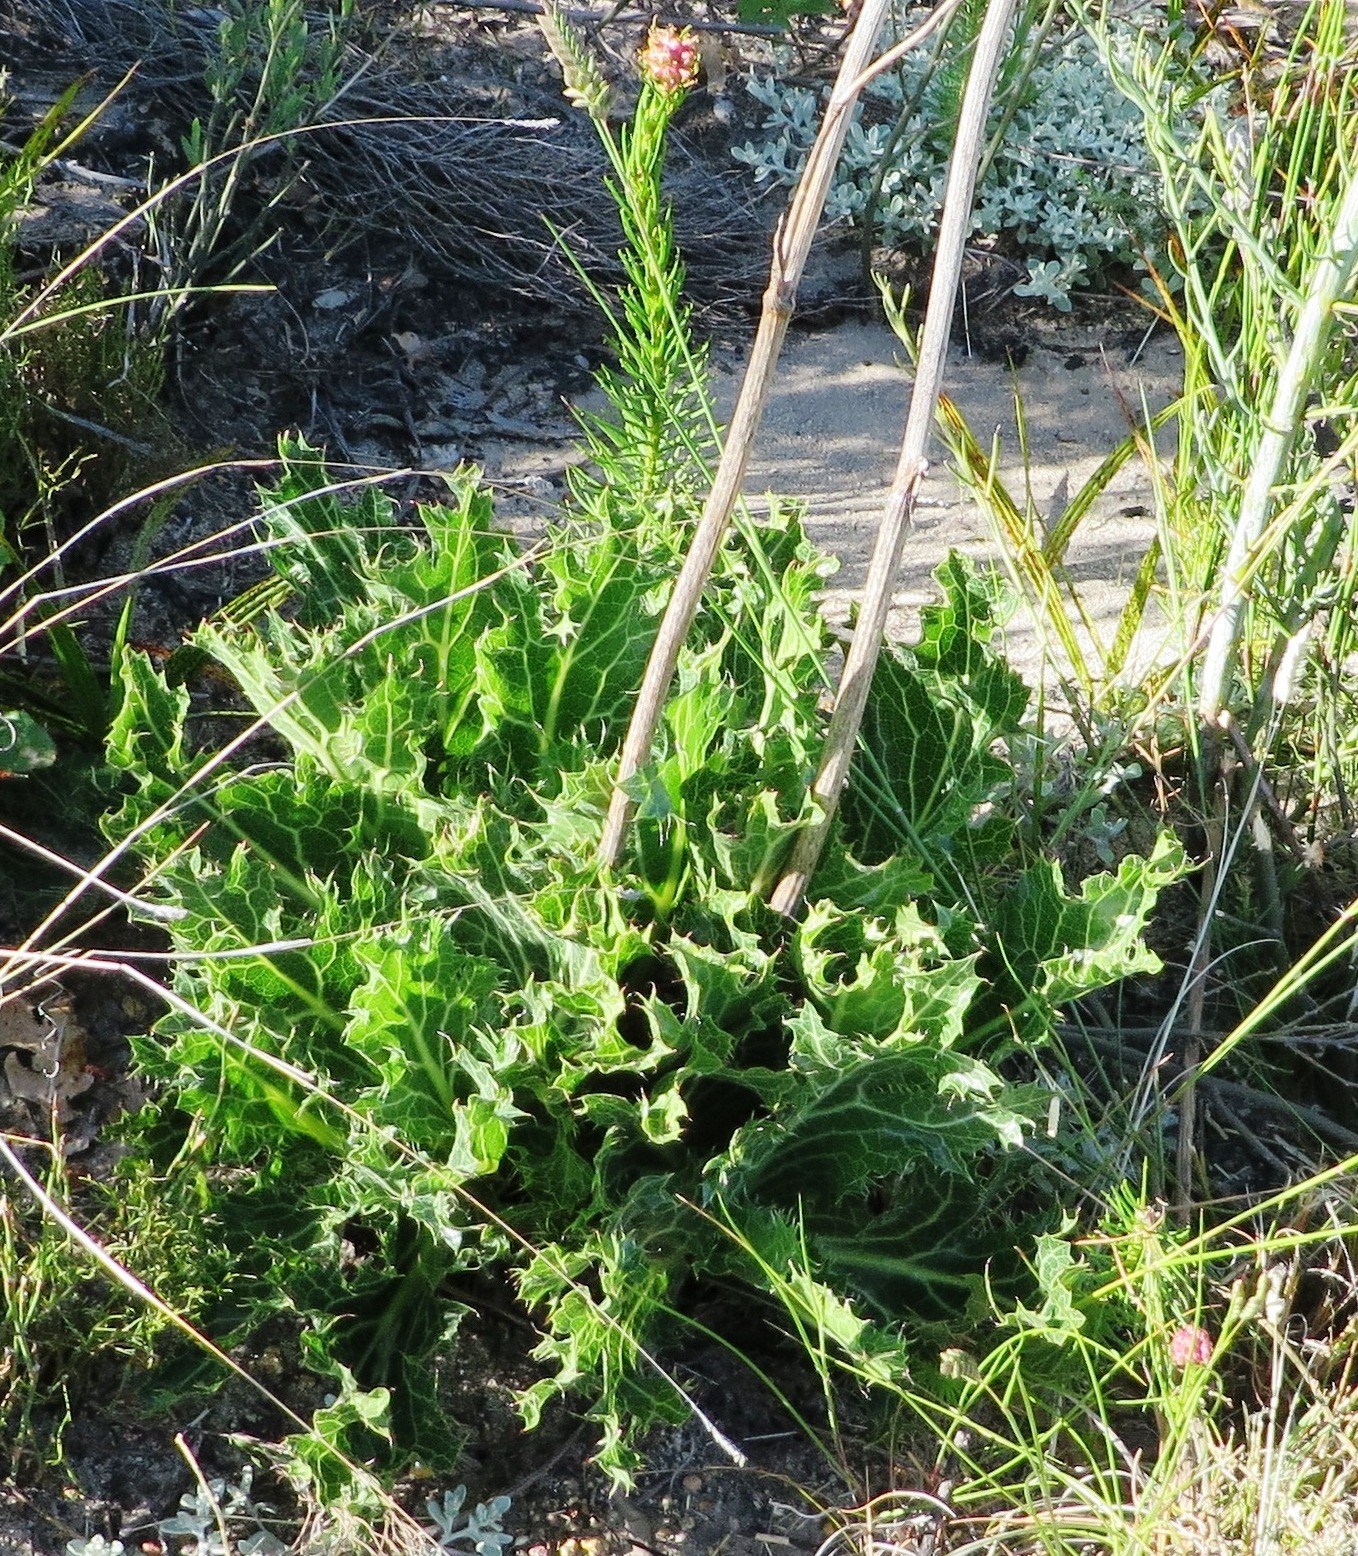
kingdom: Plantae
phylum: Tracheophyta
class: Magnoliopsida
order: Apiales
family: Apiaceae
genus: Lichtensteinia
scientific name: Lichtensteinia lacera
